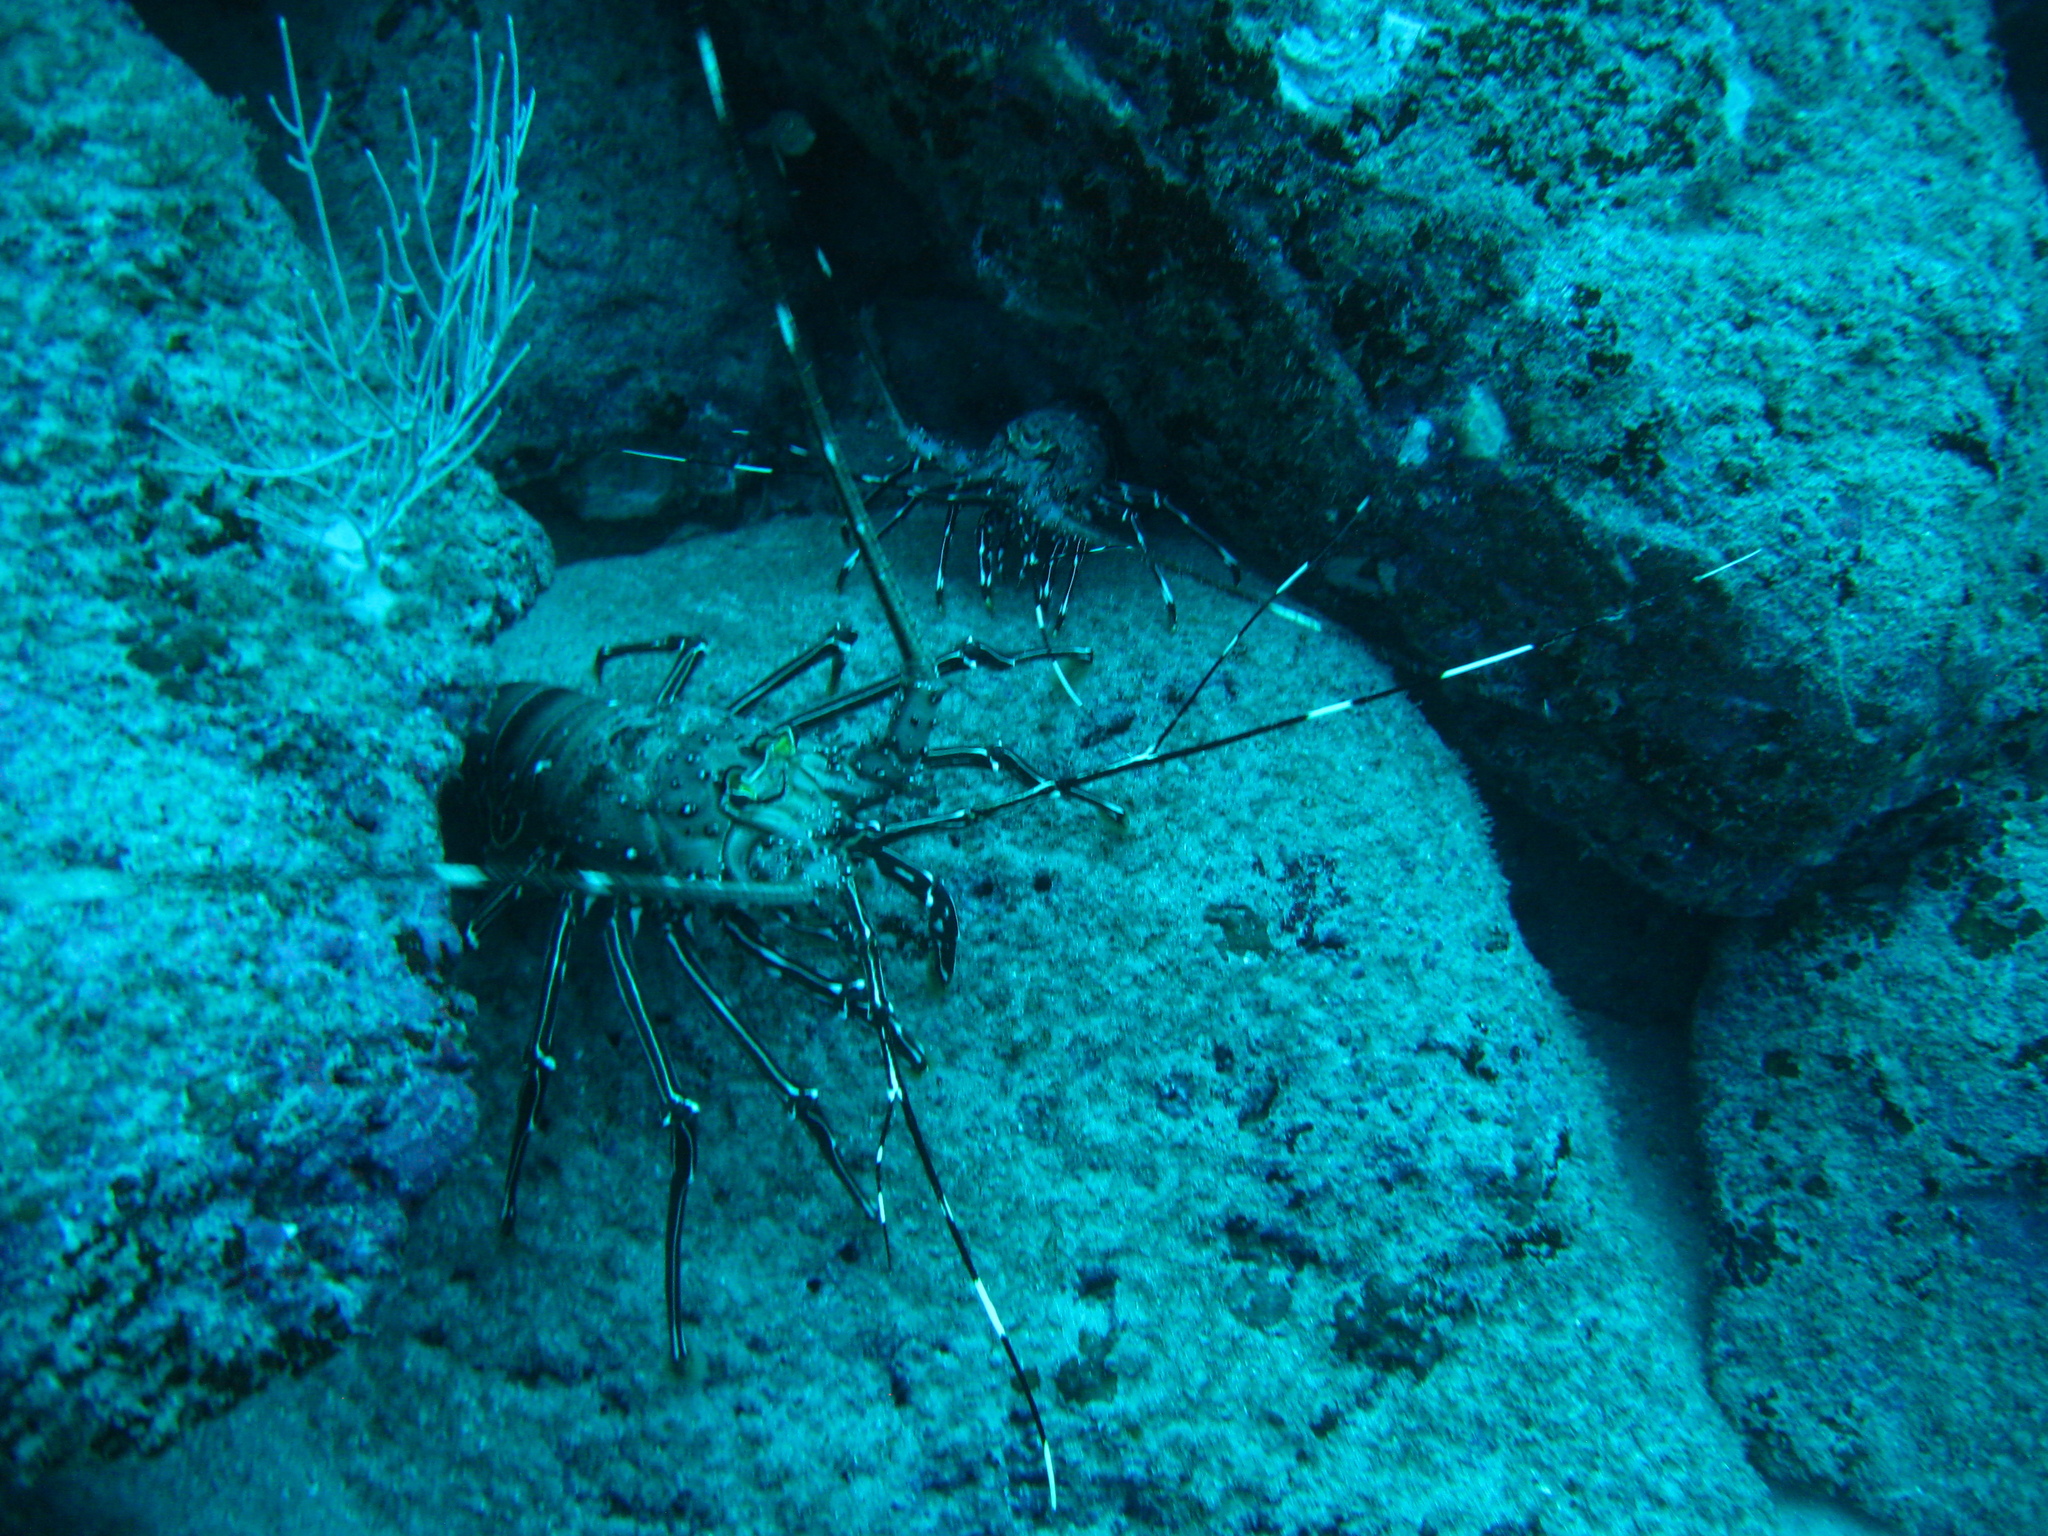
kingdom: Animalia
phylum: Arthropoda
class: Malacostraca
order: Decapoda
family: Palinuridae
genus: Panulirus
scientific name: Panulirus gracilis
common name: Green spiny lobster
